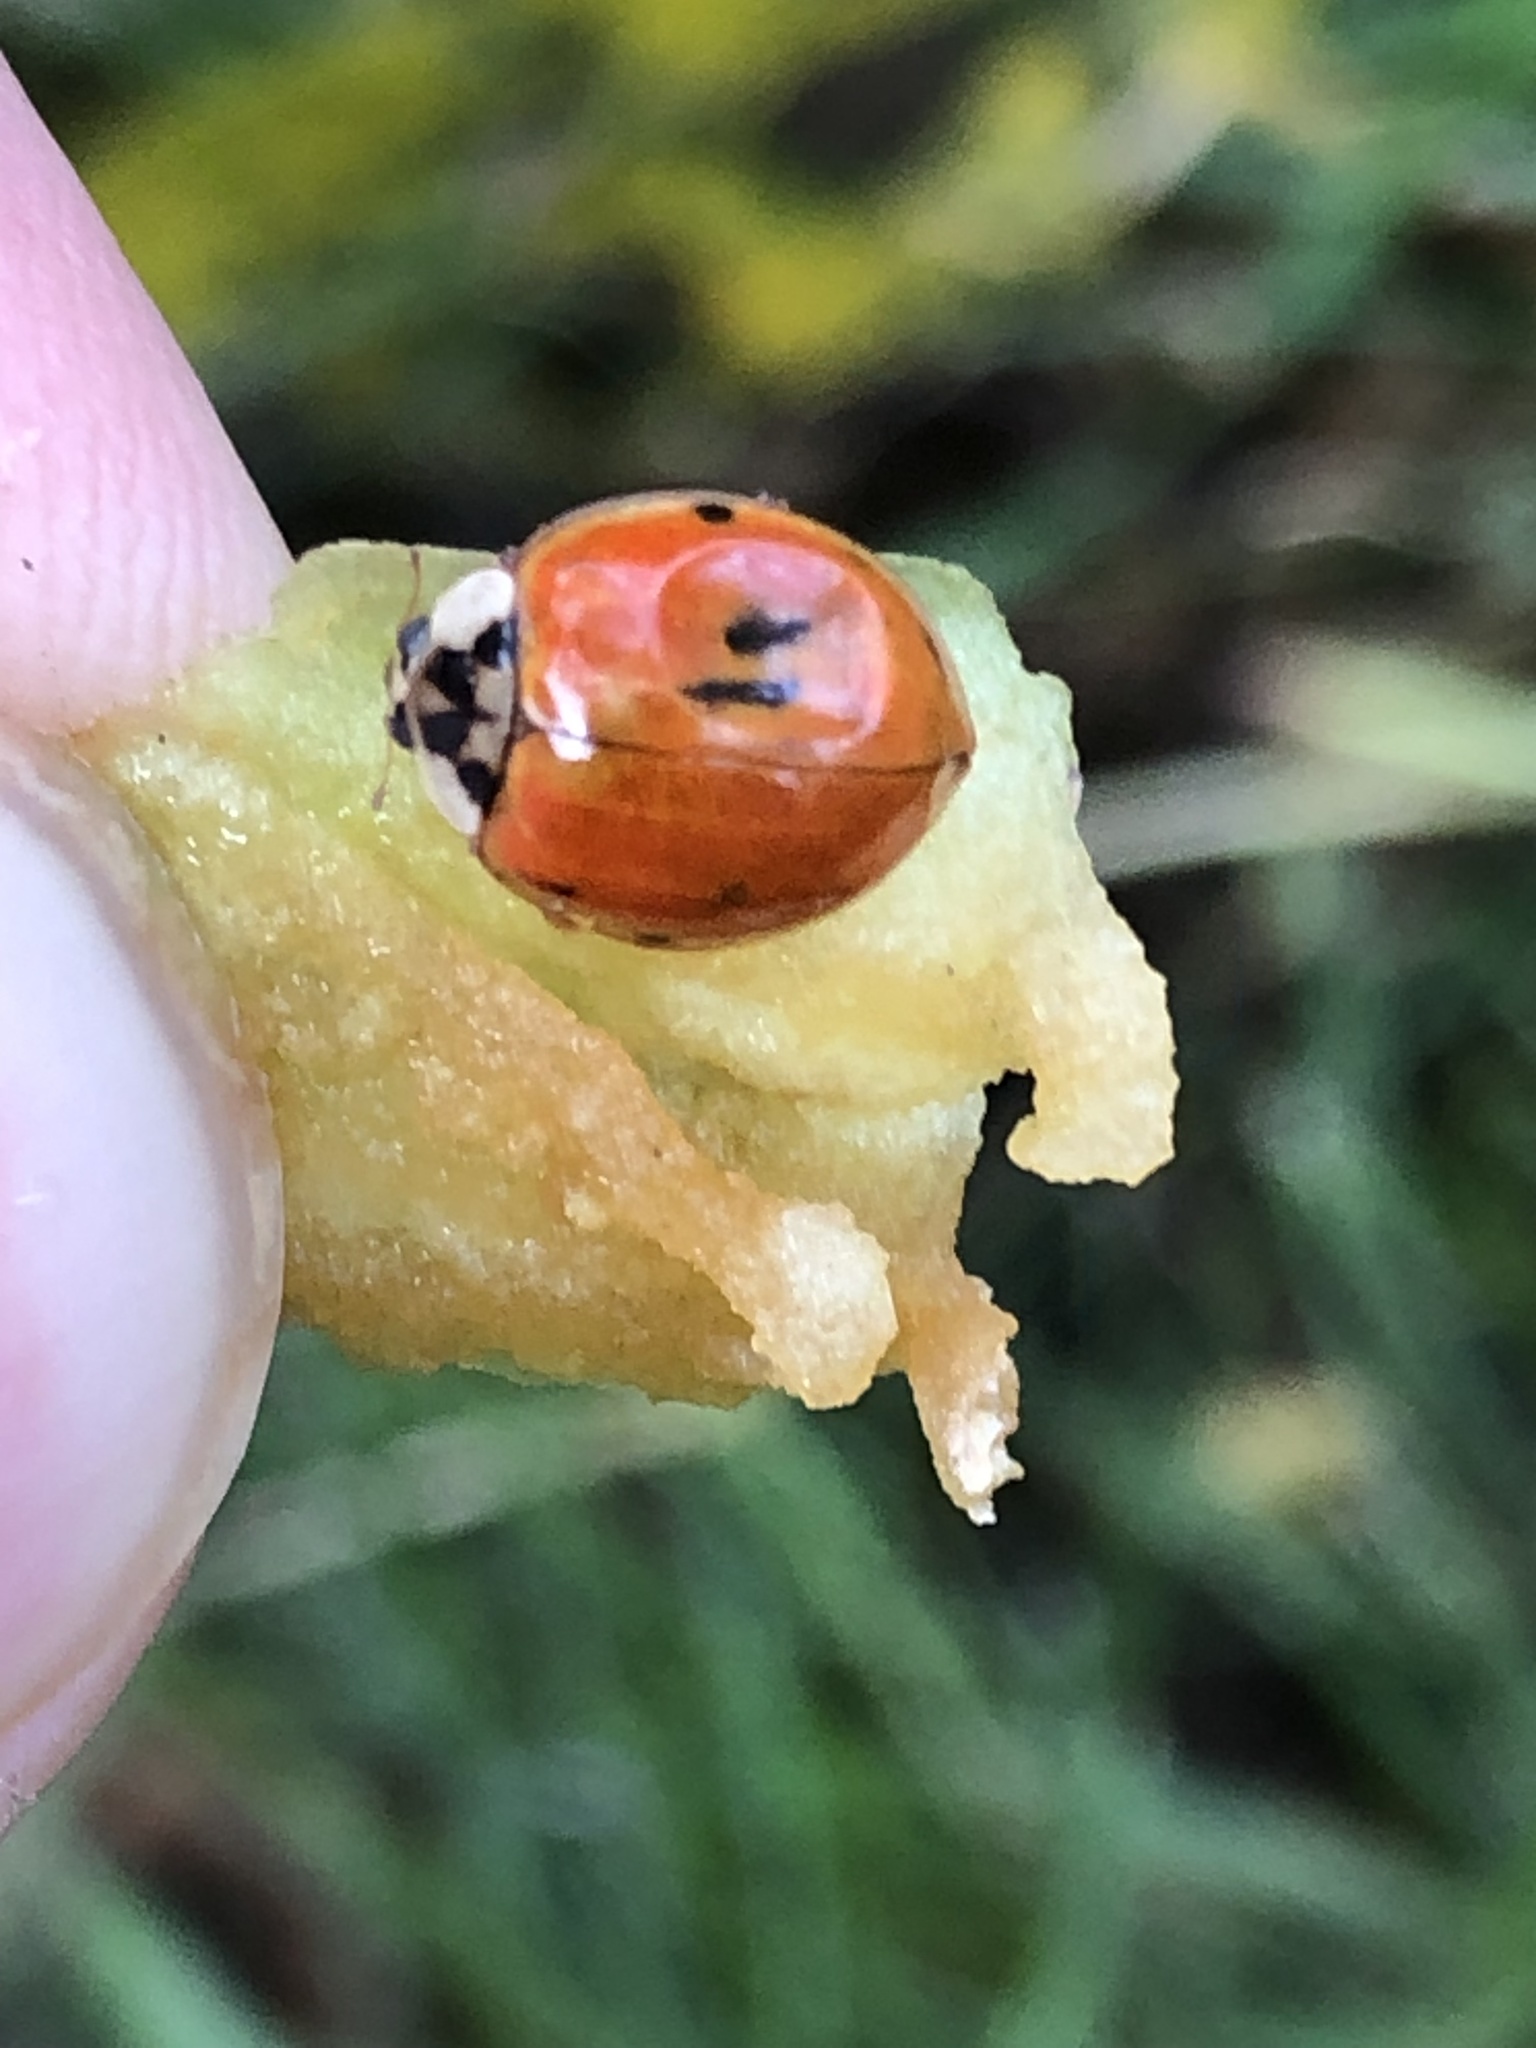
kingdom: Animalia
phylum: Arthropoda
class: Insecta
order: Coleoptera
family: Coccinellidae
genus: Harmonia
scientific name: Harmonia axyridis
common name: Harlequin ladybird
